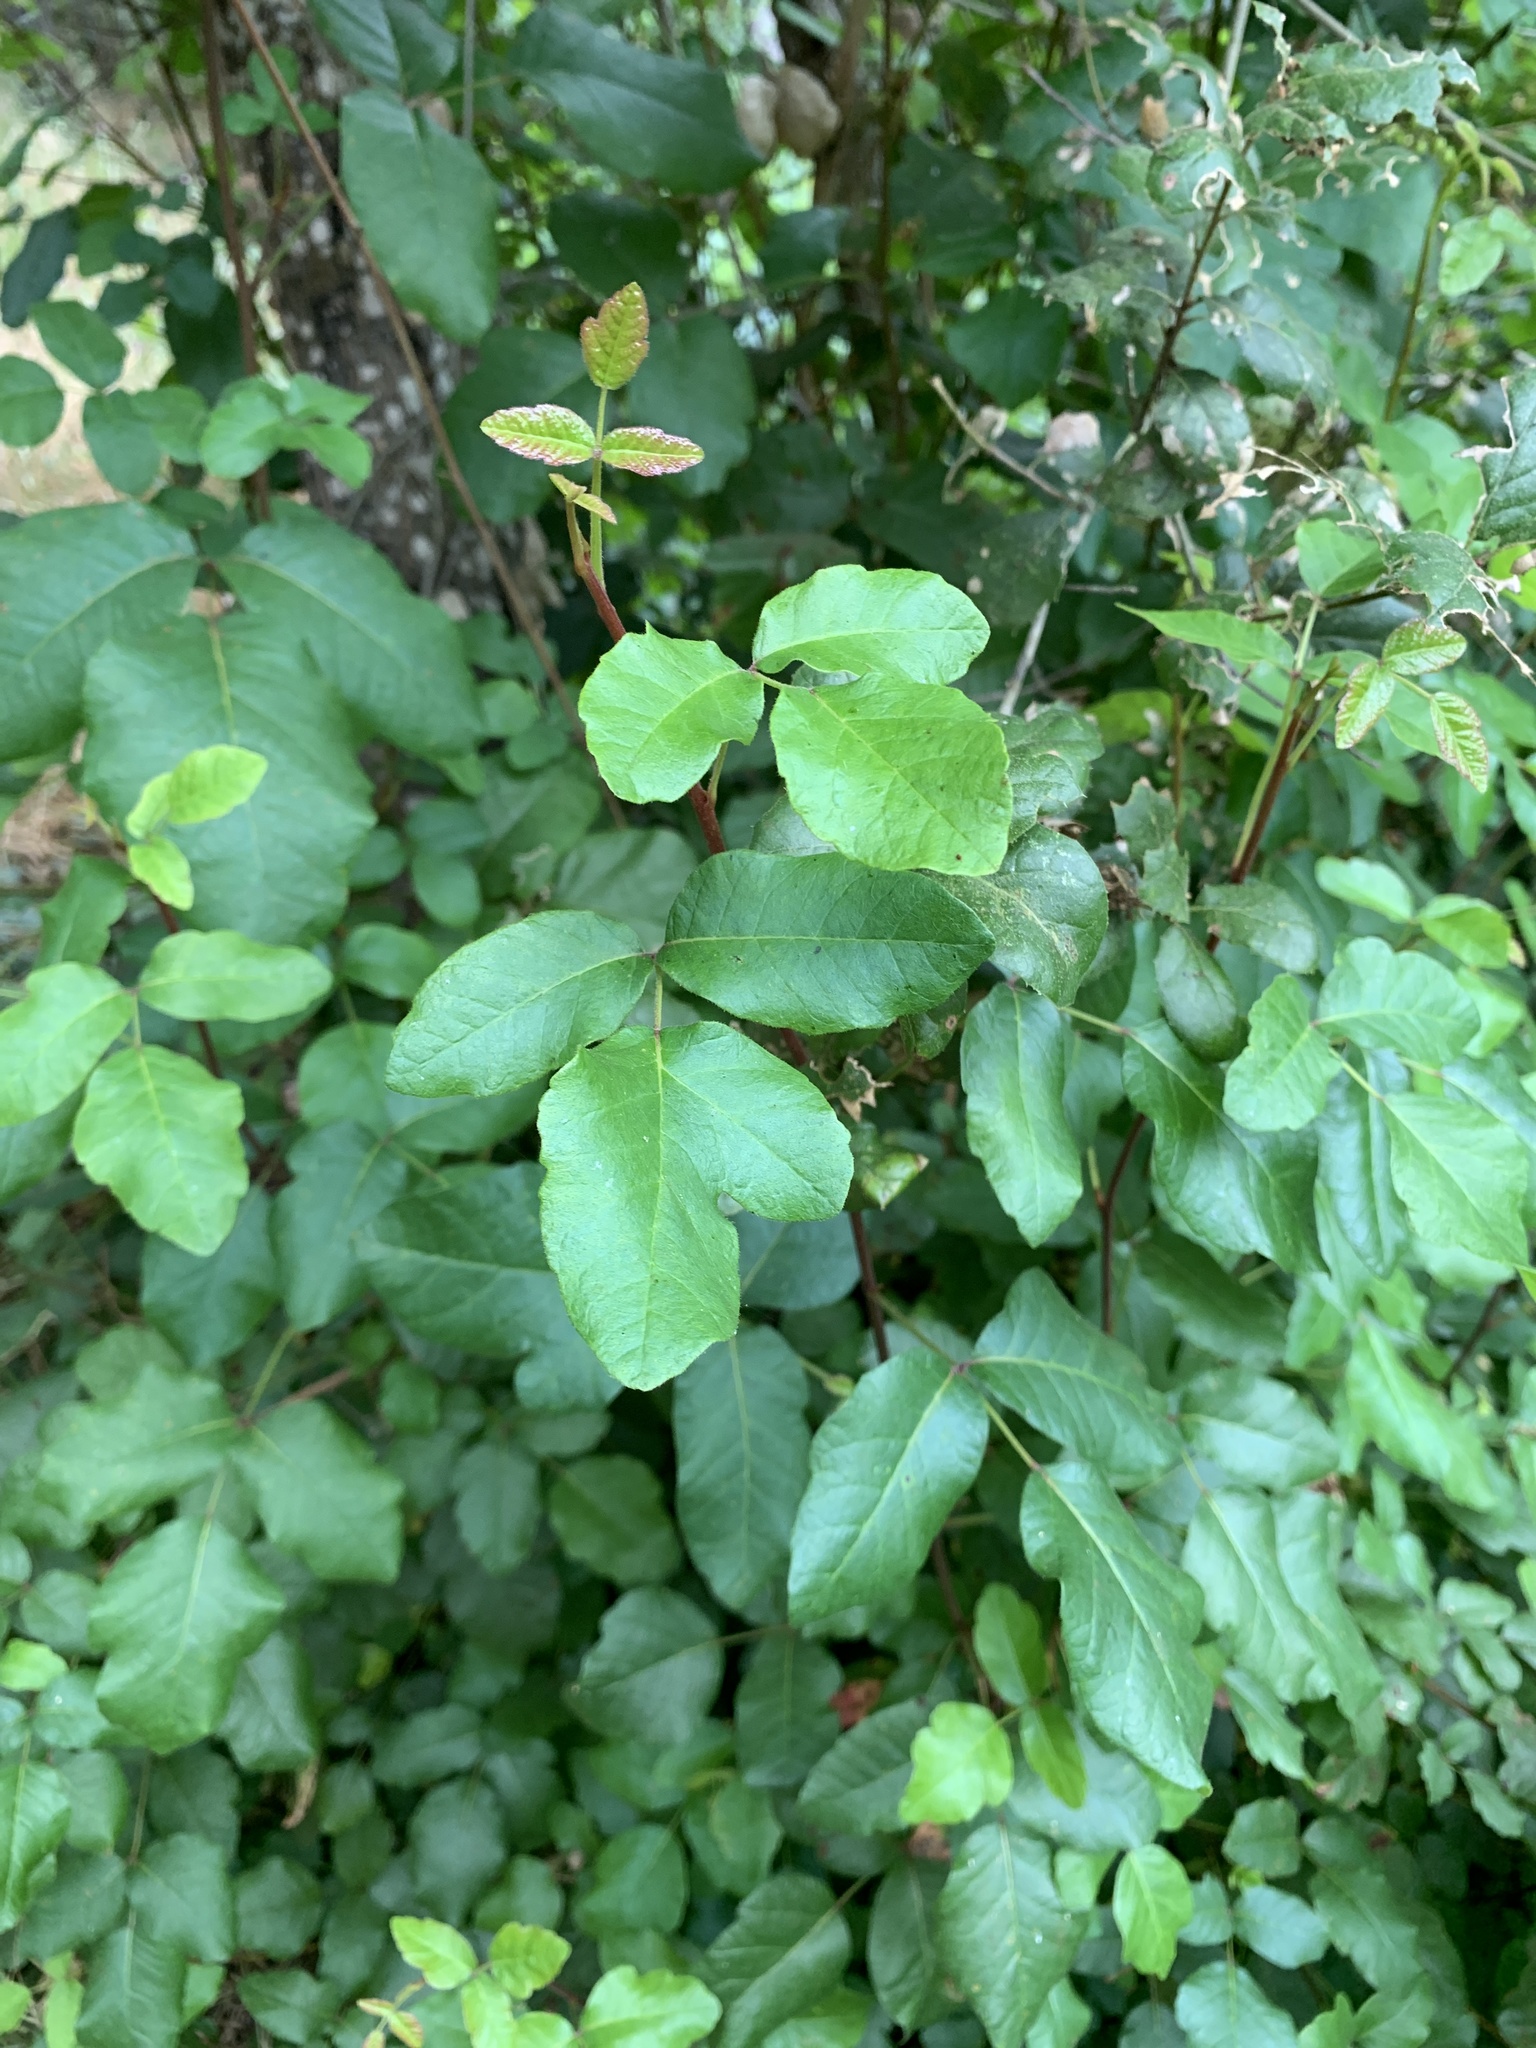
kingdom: Plantae
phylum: Tracheophyta
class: Magnoliopsida
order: Sapindales
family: Anacardiaceae
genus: Toxicodendron
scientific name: Toxicodendron diversilobum
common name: Pacific poison-oak
